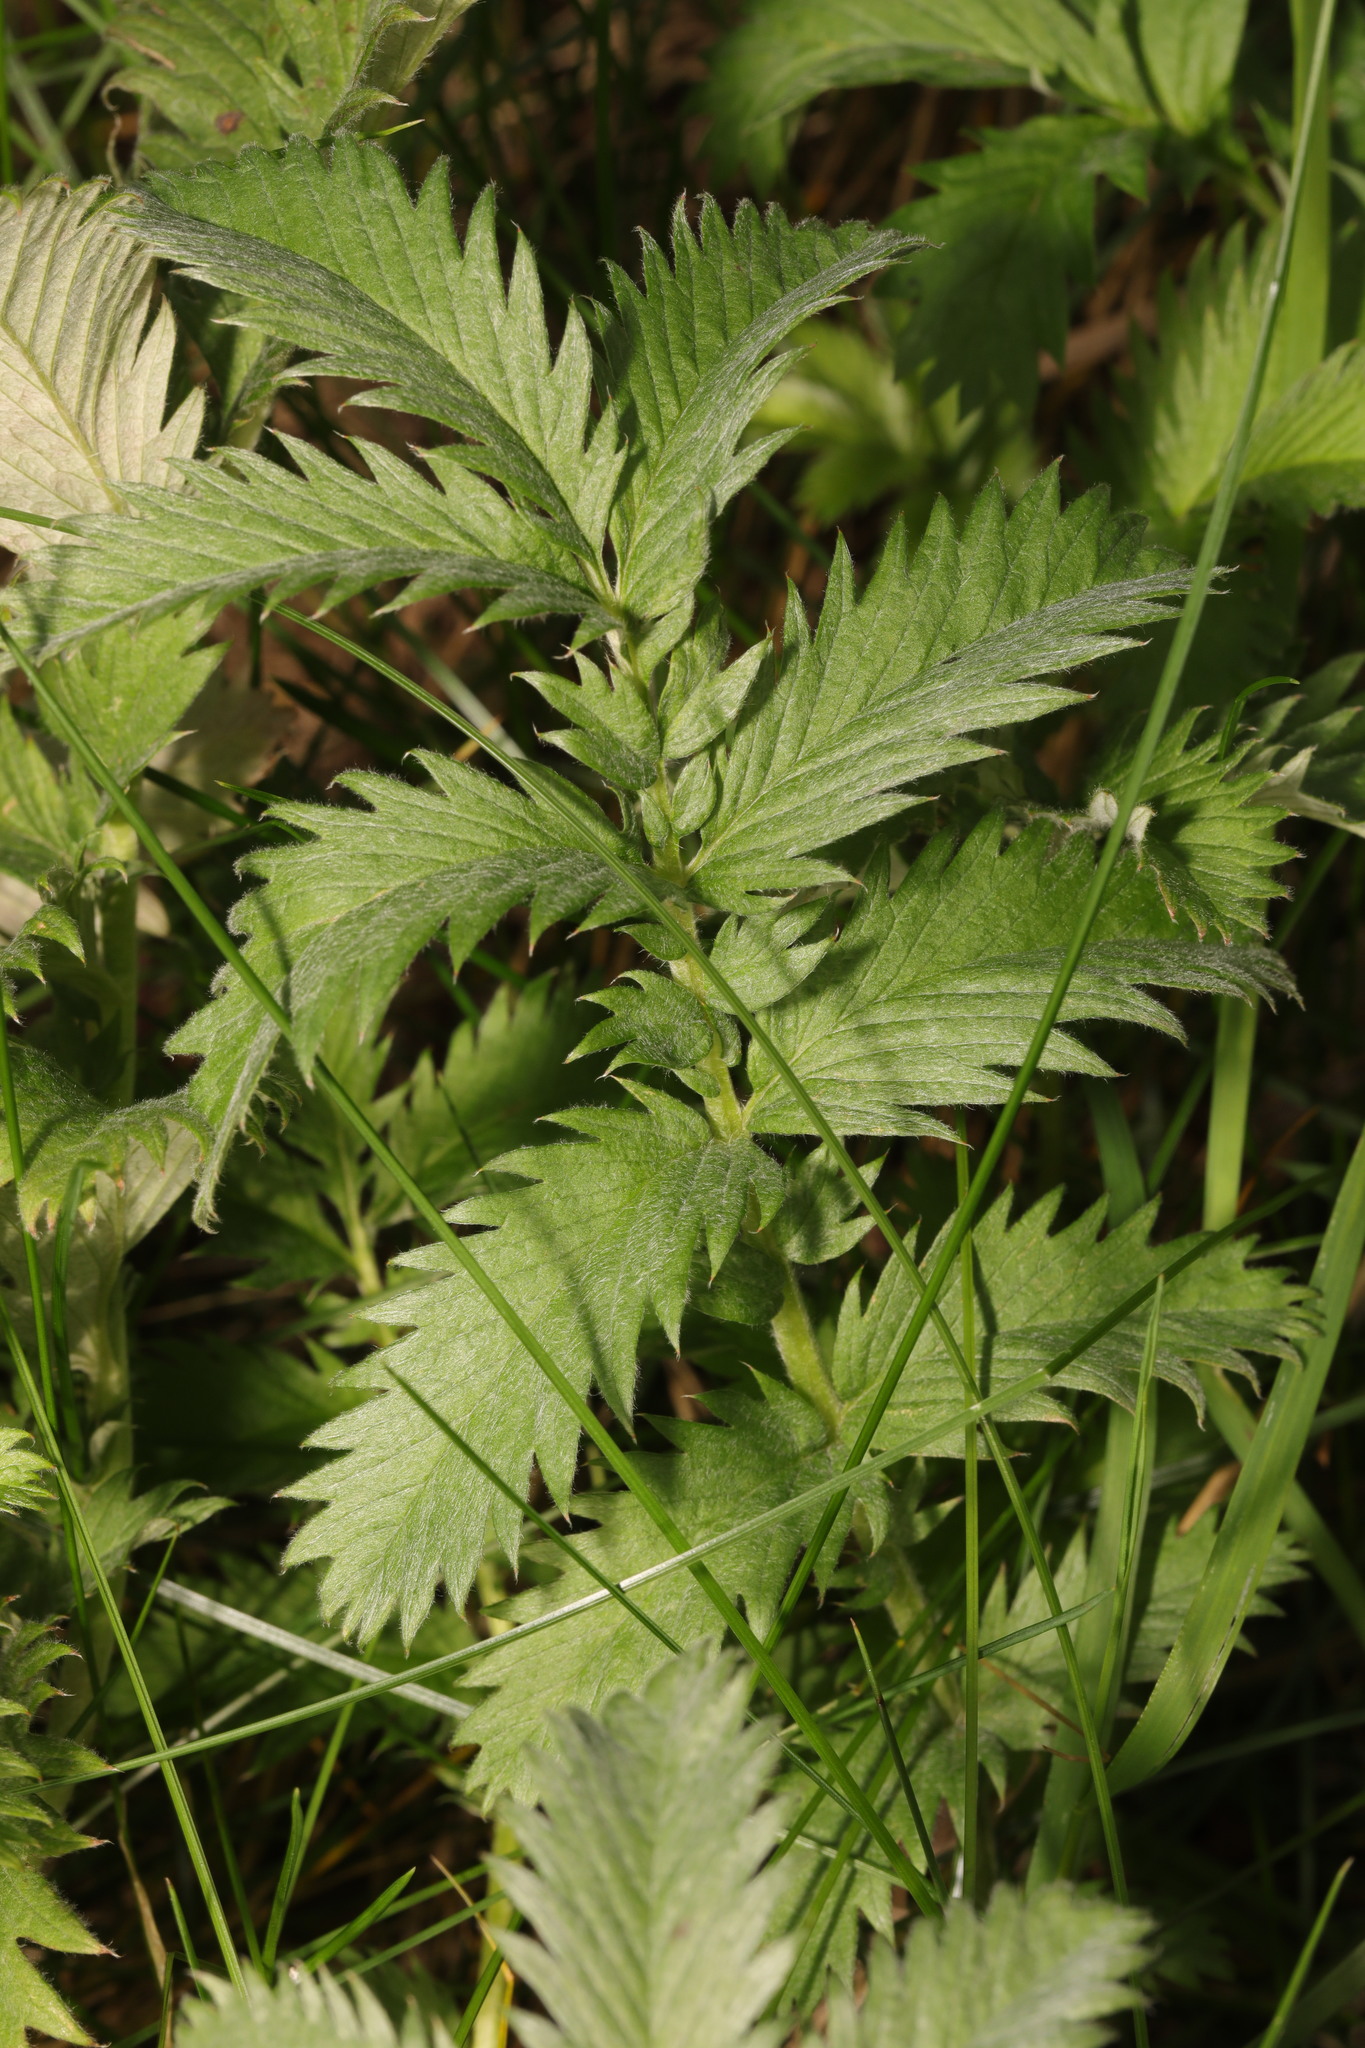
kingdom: Plantae
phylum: Tracheophyta
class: Magnoliopsida
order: Rosales
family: Rosaceae
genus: Argentina
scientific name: Argentina anserina
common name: Common silverweed
